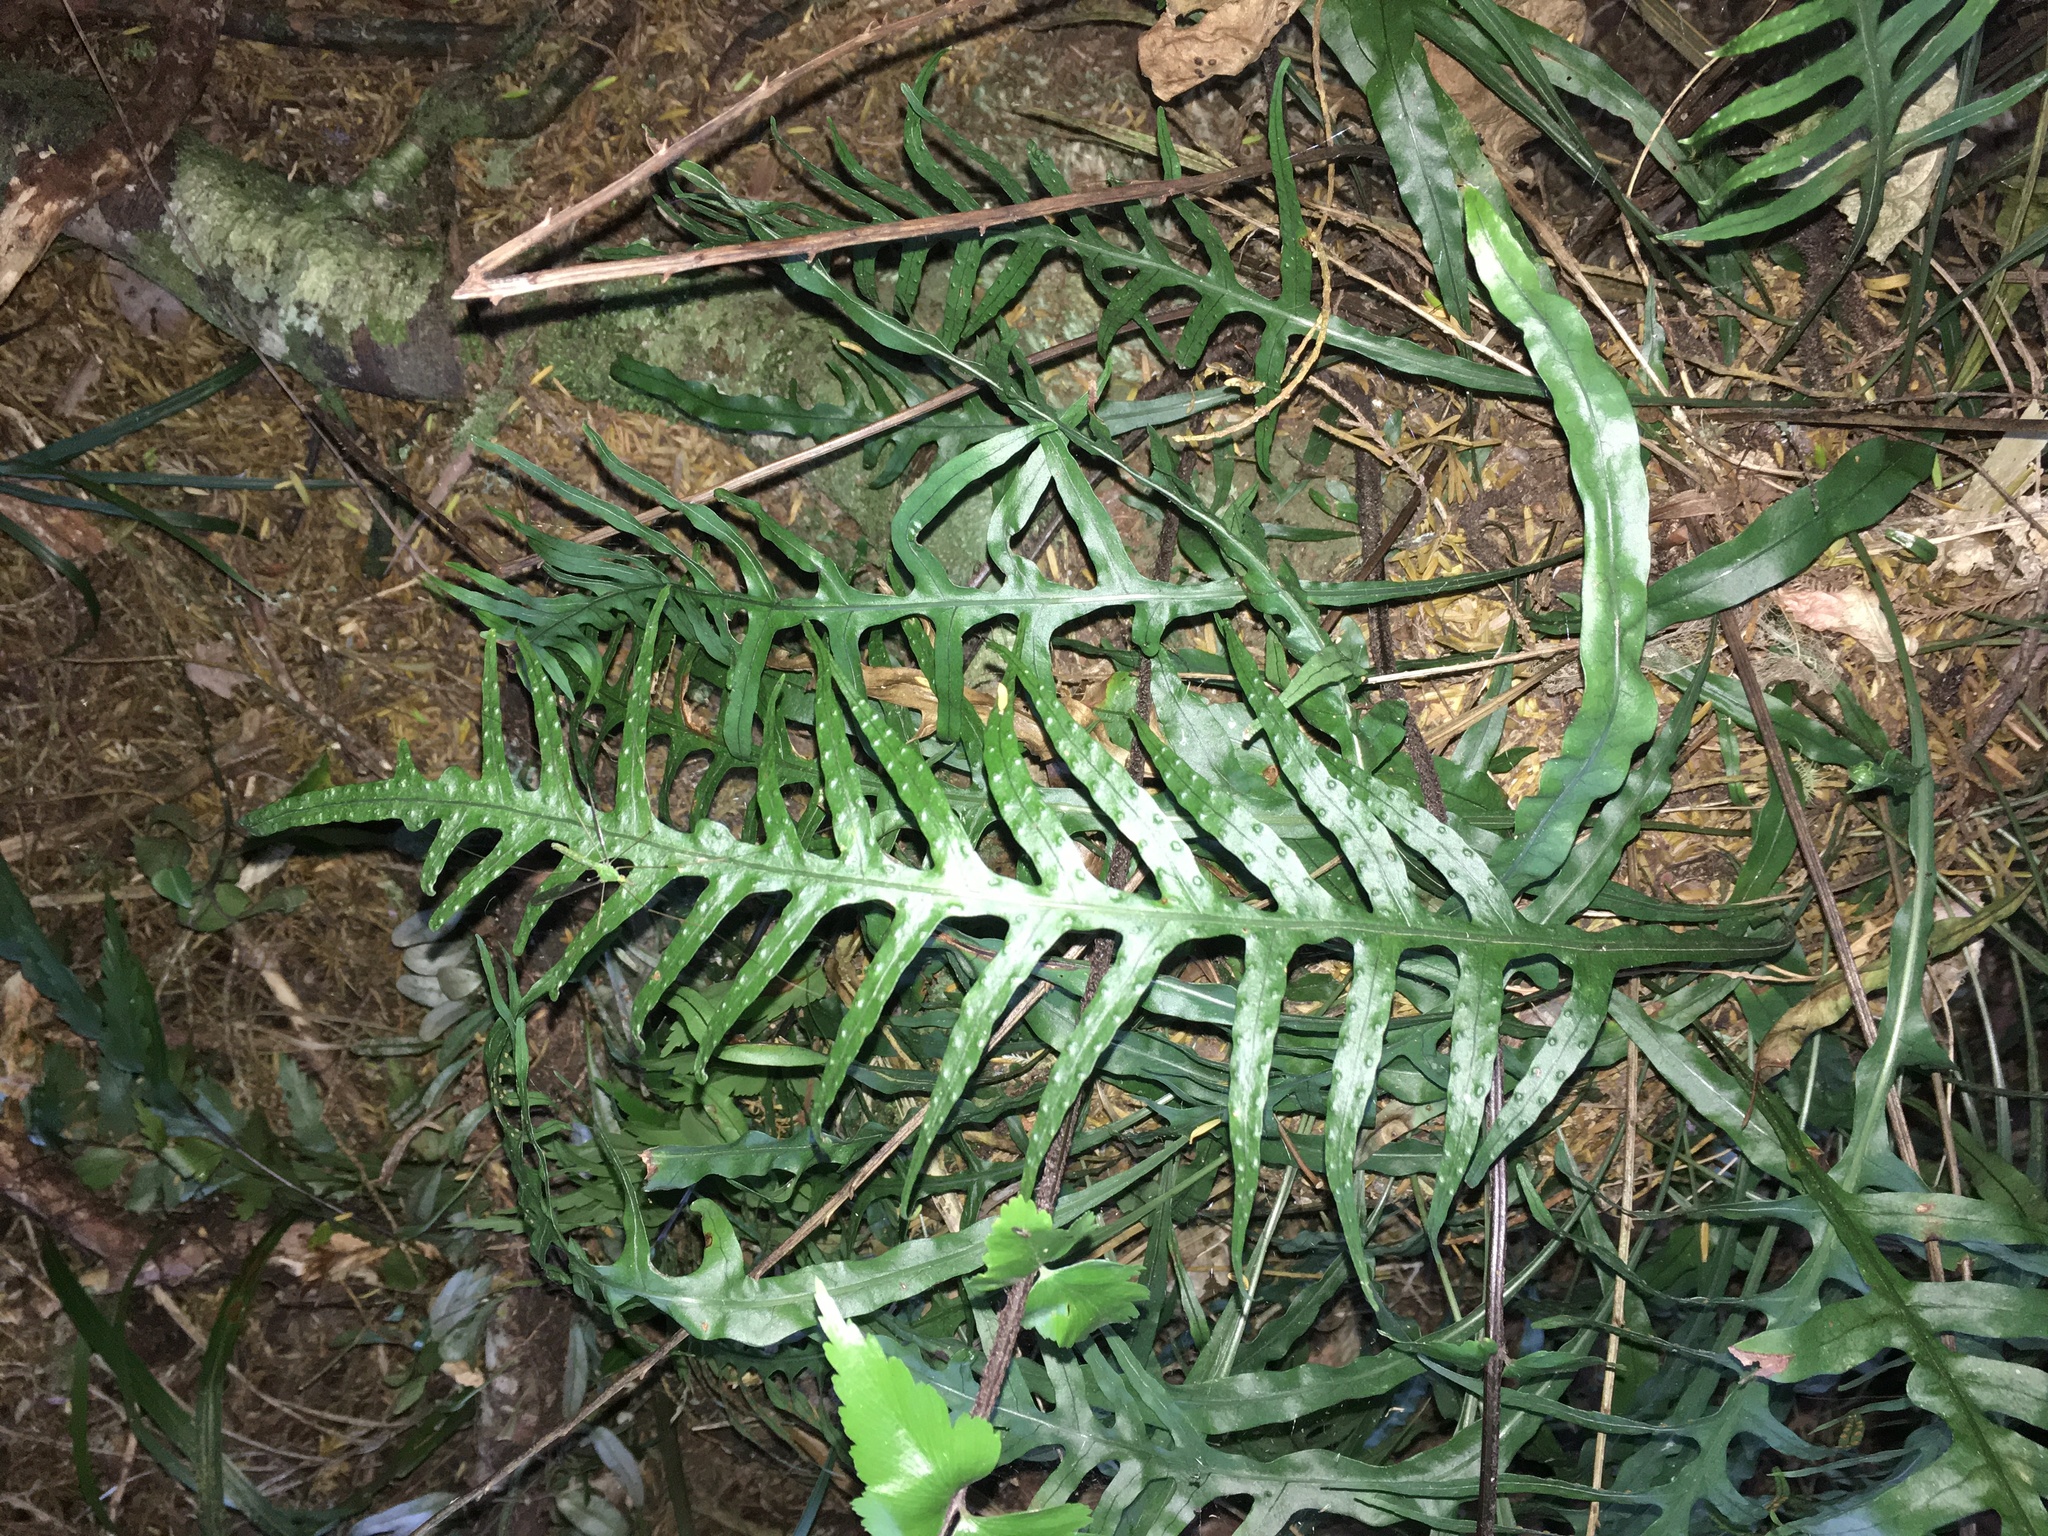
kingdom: Plantae
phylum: Tracheophyta
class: Polypodiopsida
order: Polypodiales
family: Polypodiaceae
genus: Lecanopteris
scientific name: Lecanopteris scandens
